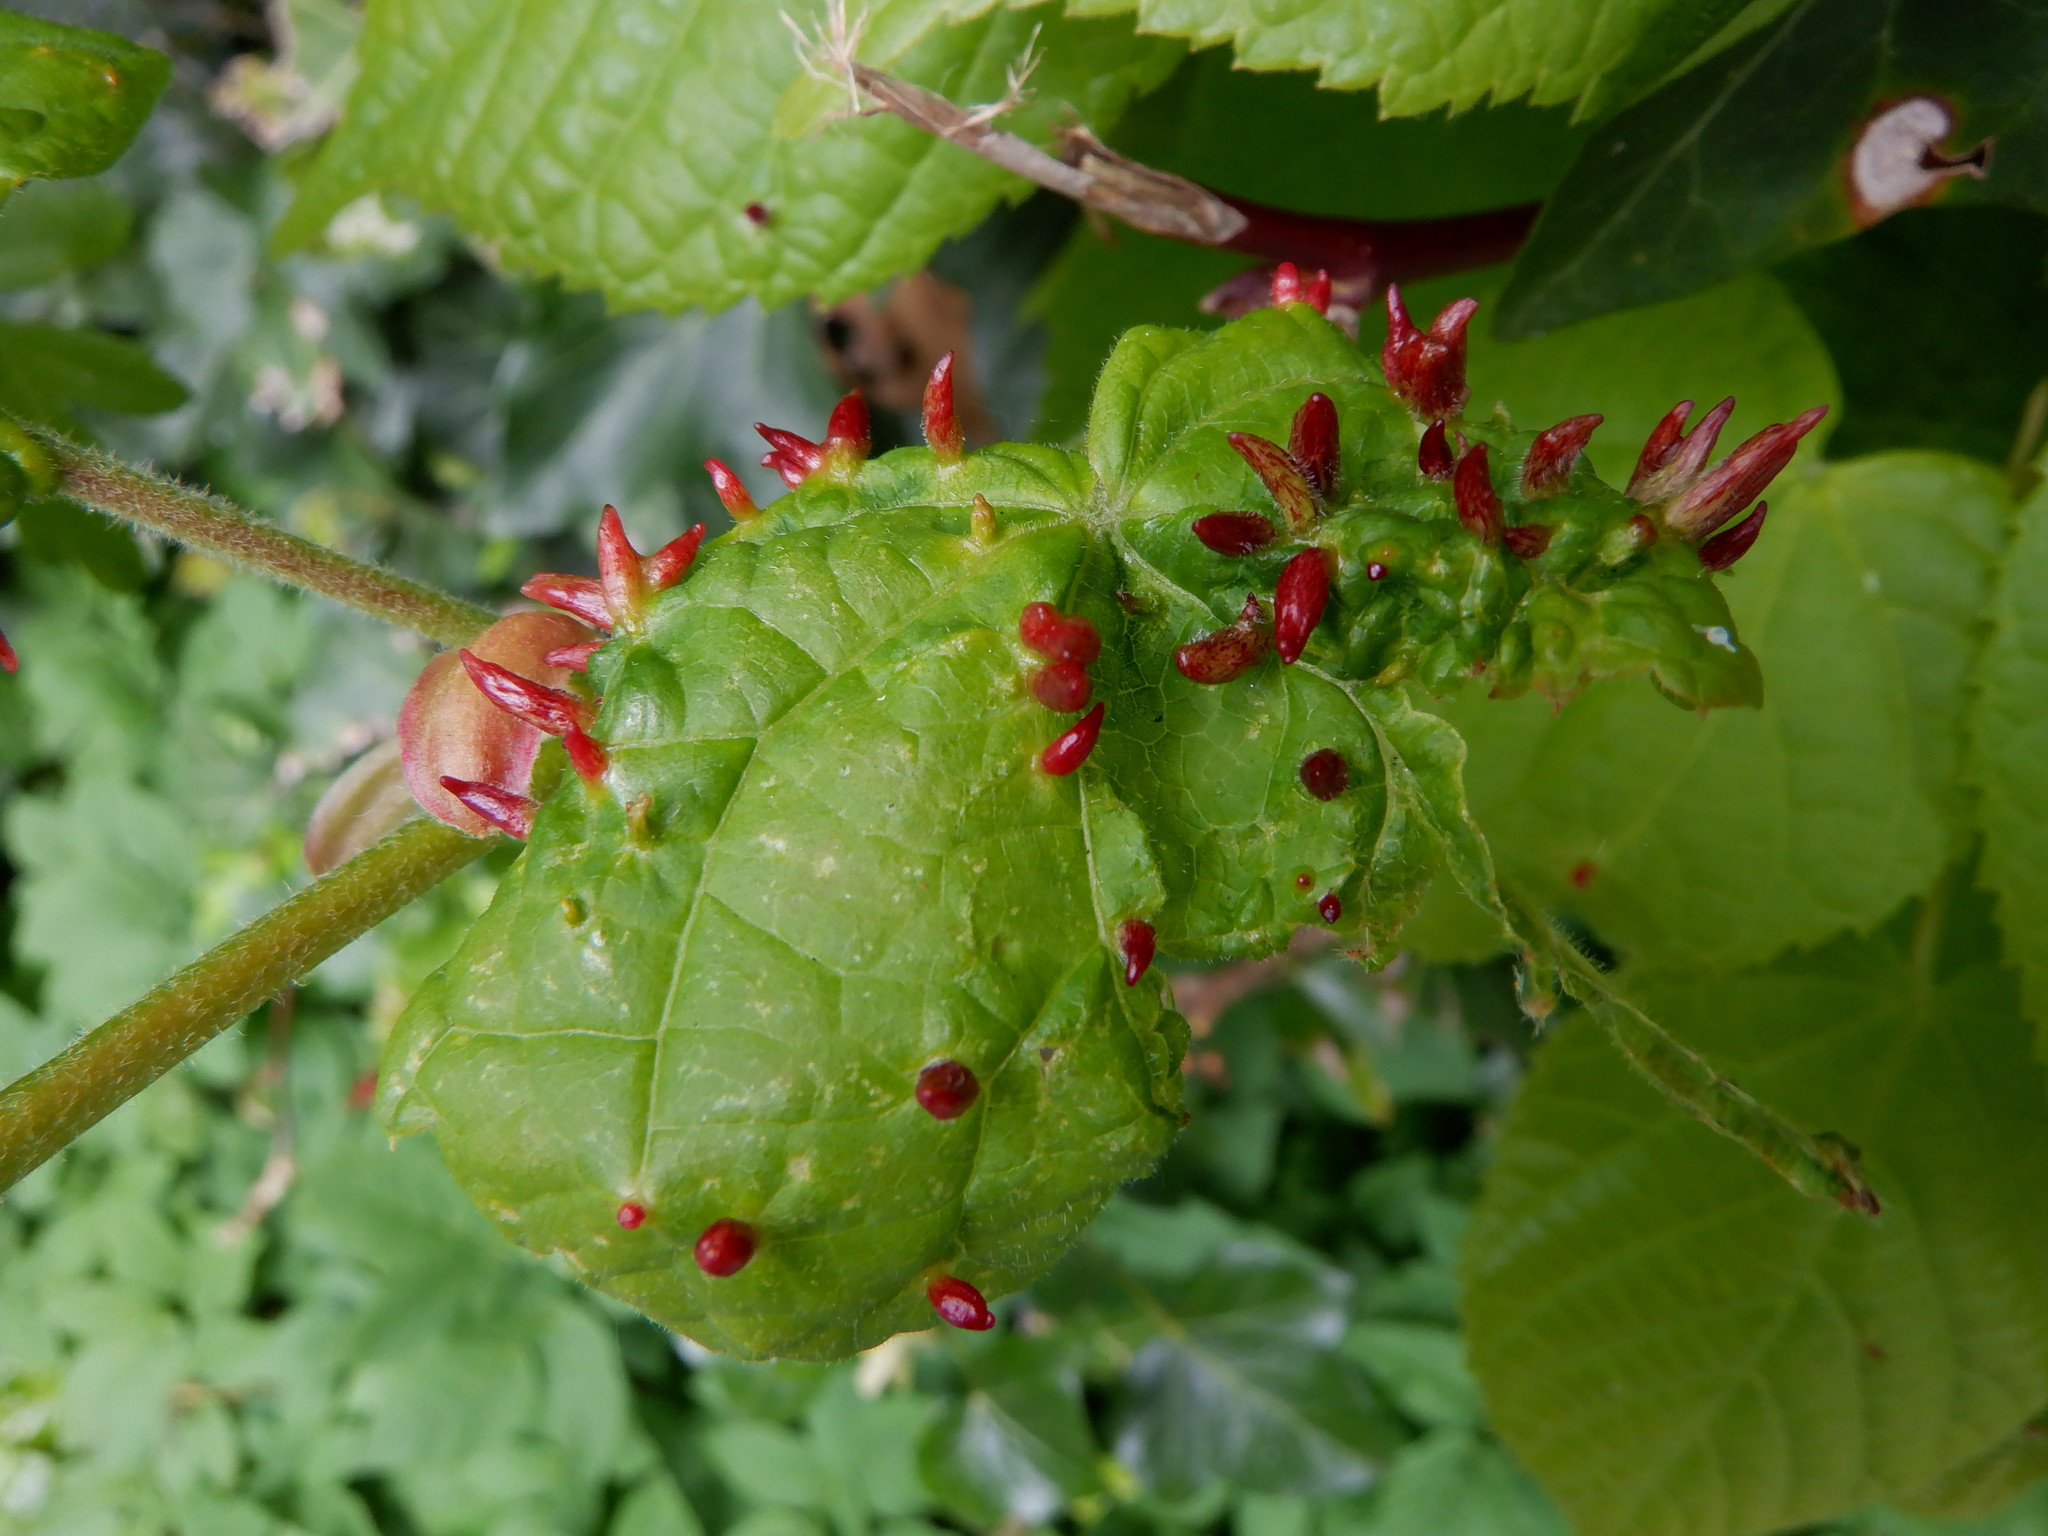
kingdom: Animalia
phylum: Arthropoda
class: Arachnida
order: Trombidiformes
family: Eriophyidae
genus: Eriophyes
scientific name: Eriophyes tiliae
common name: Red nail gall mite
